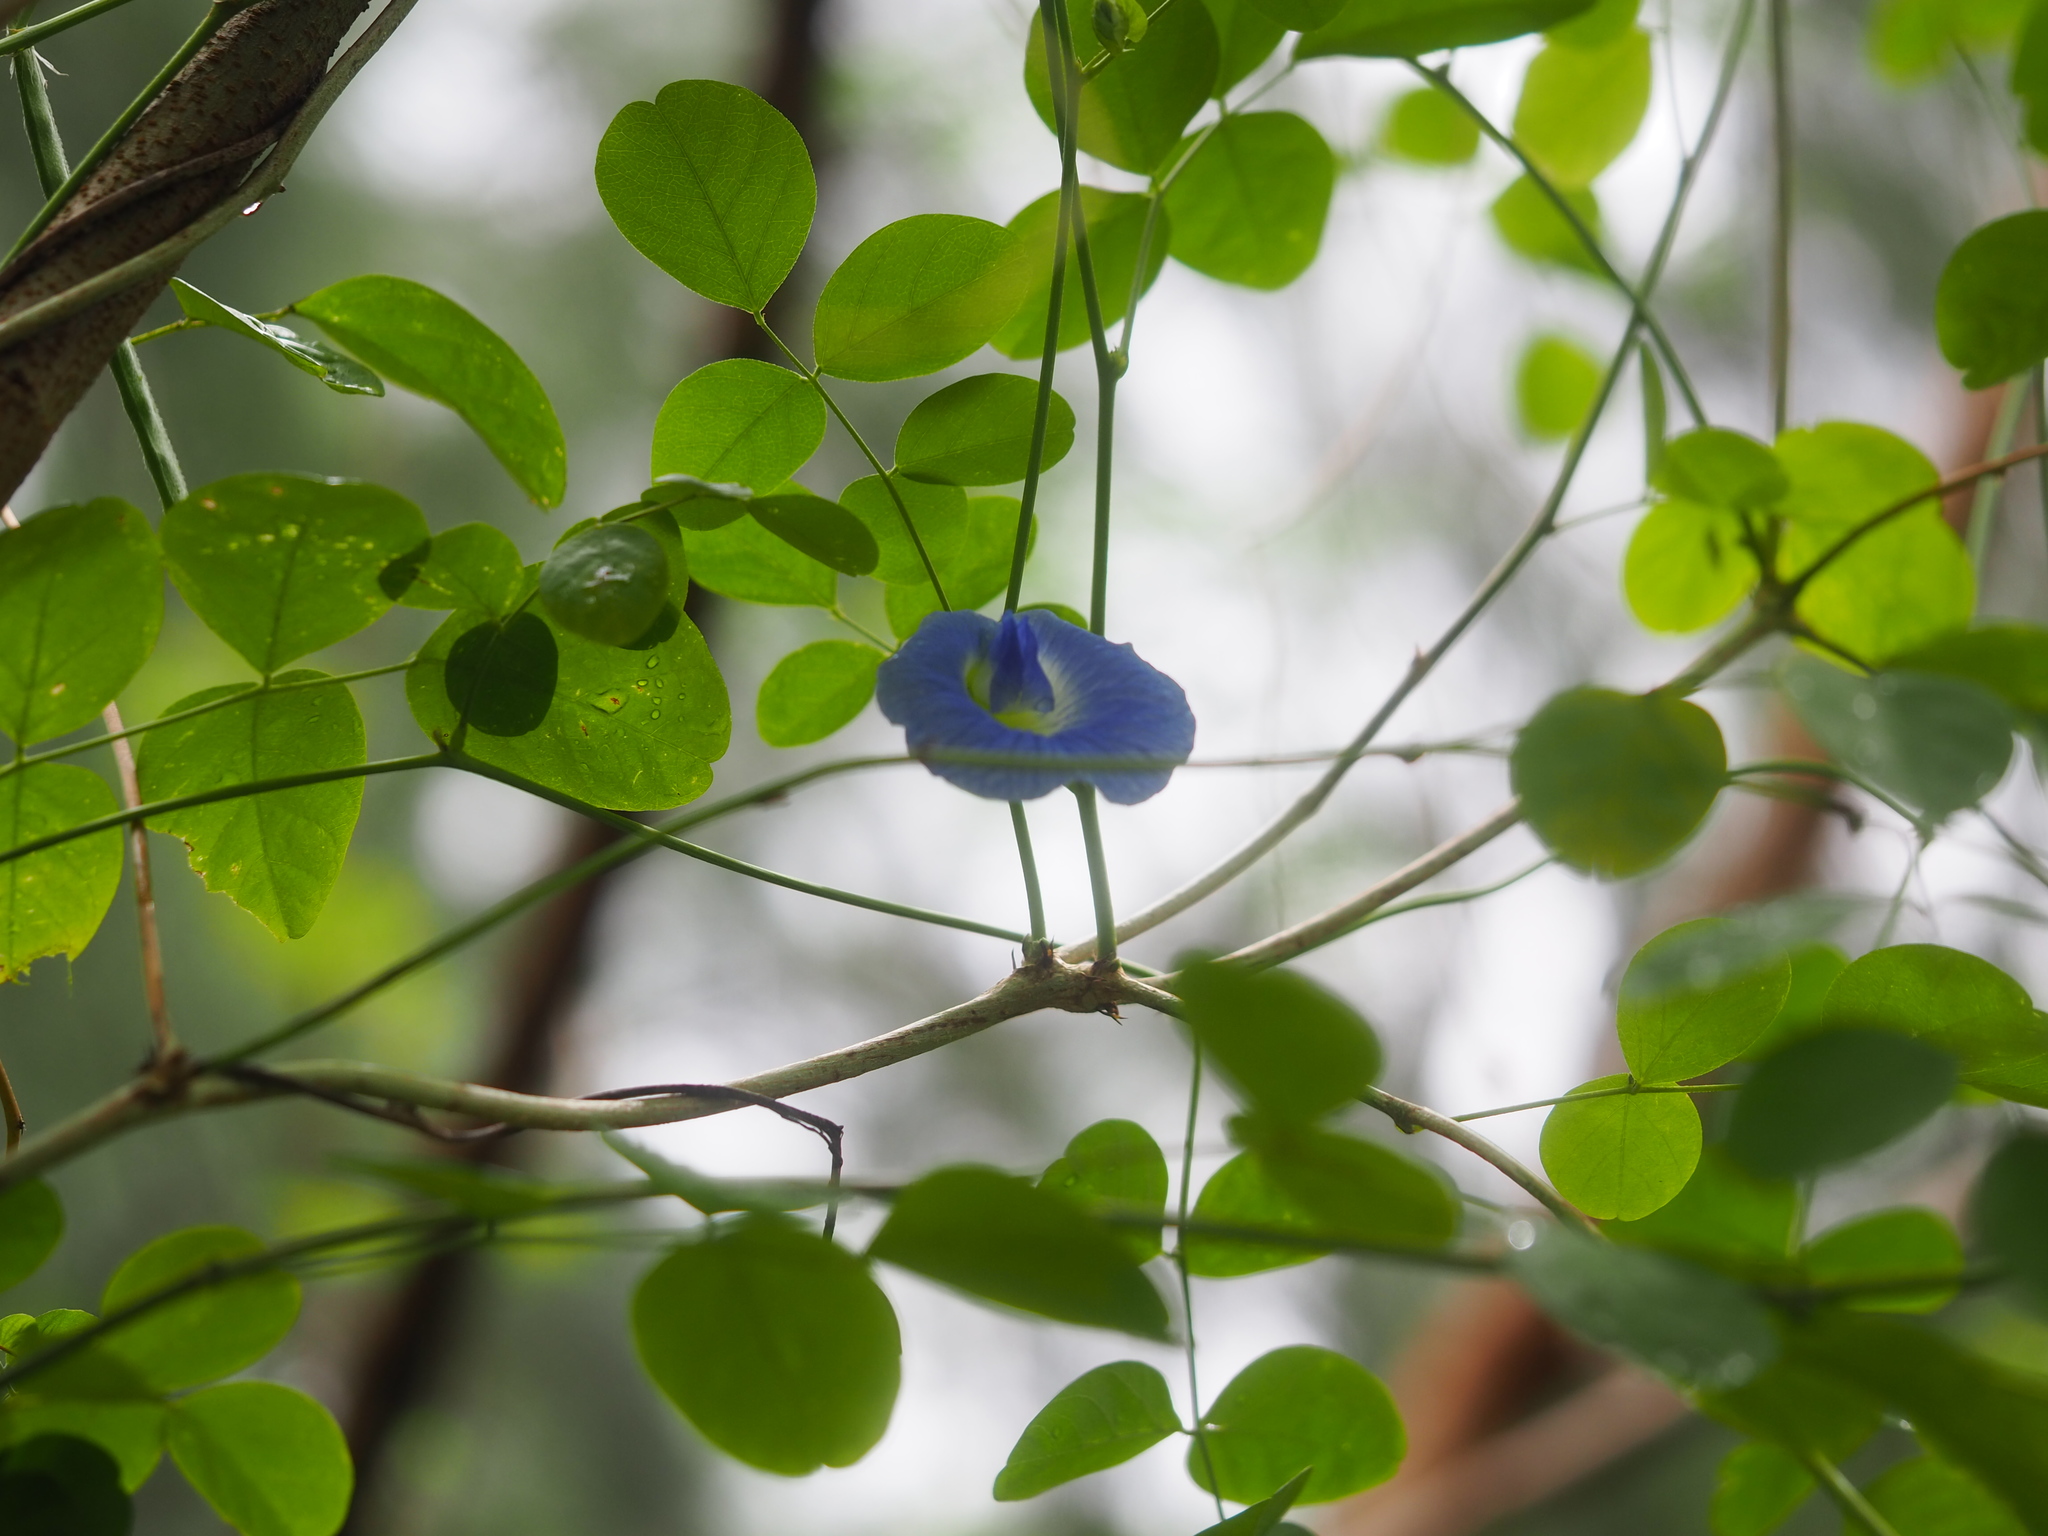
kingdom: Plantae
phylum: Tracheophyta
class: Magnoliopsida
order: Fabales
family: Fabaceae
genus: Clitoria
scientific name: Clitoria ternatea
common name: Asian pigeonwings
